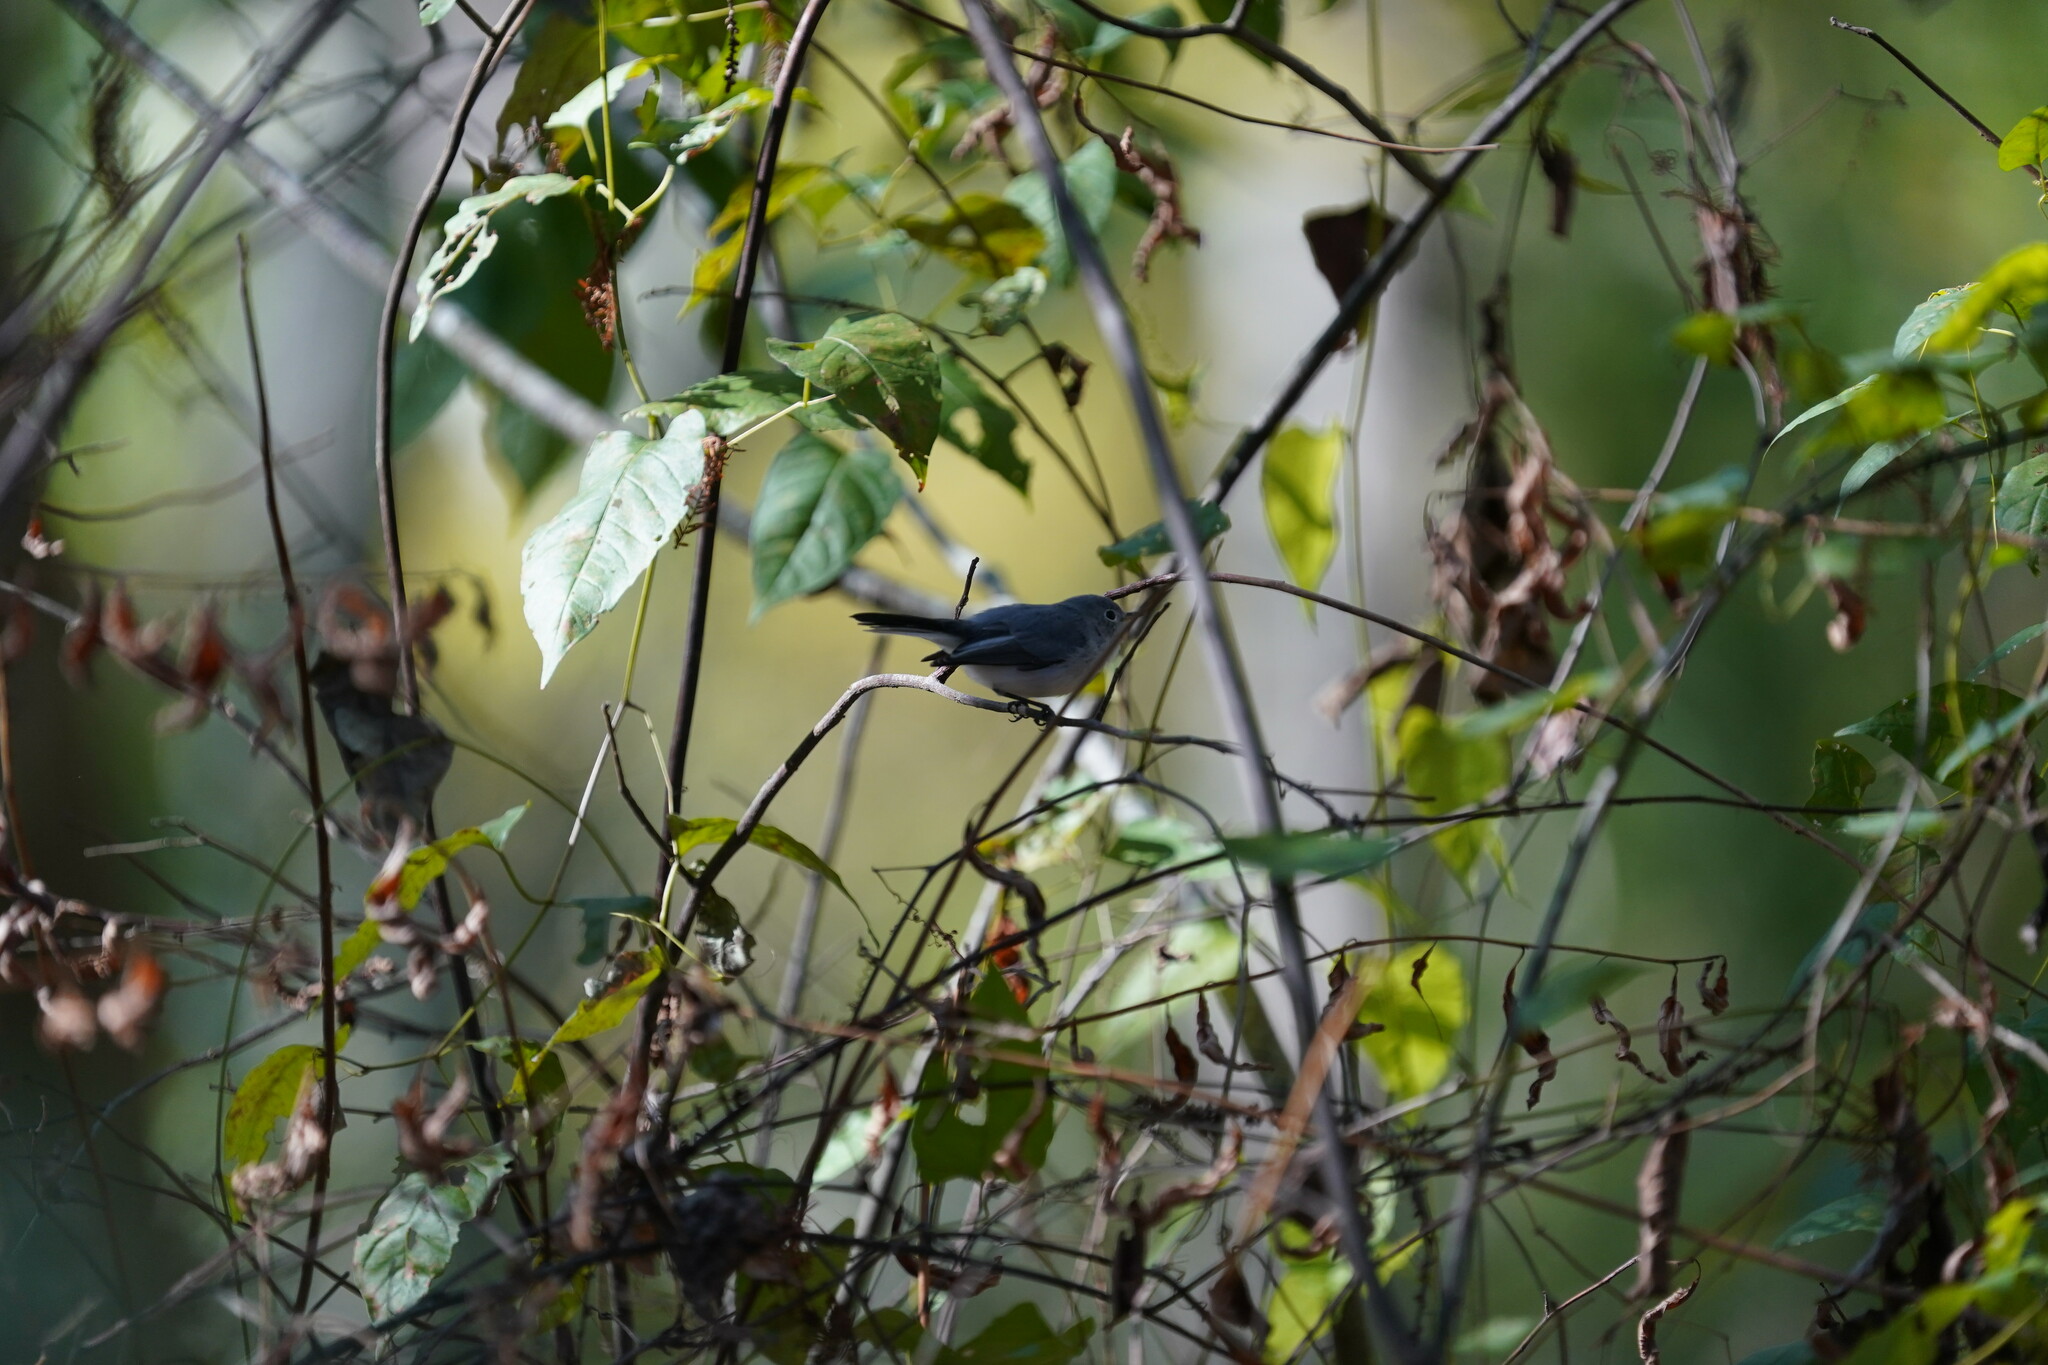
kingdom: Animalia
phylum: Chordata
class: Aves
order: Passeriformes
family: Polioptilidae
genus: Polioptila
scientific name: Polioptila caerulea
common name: Blue-gray gnatcatcher
